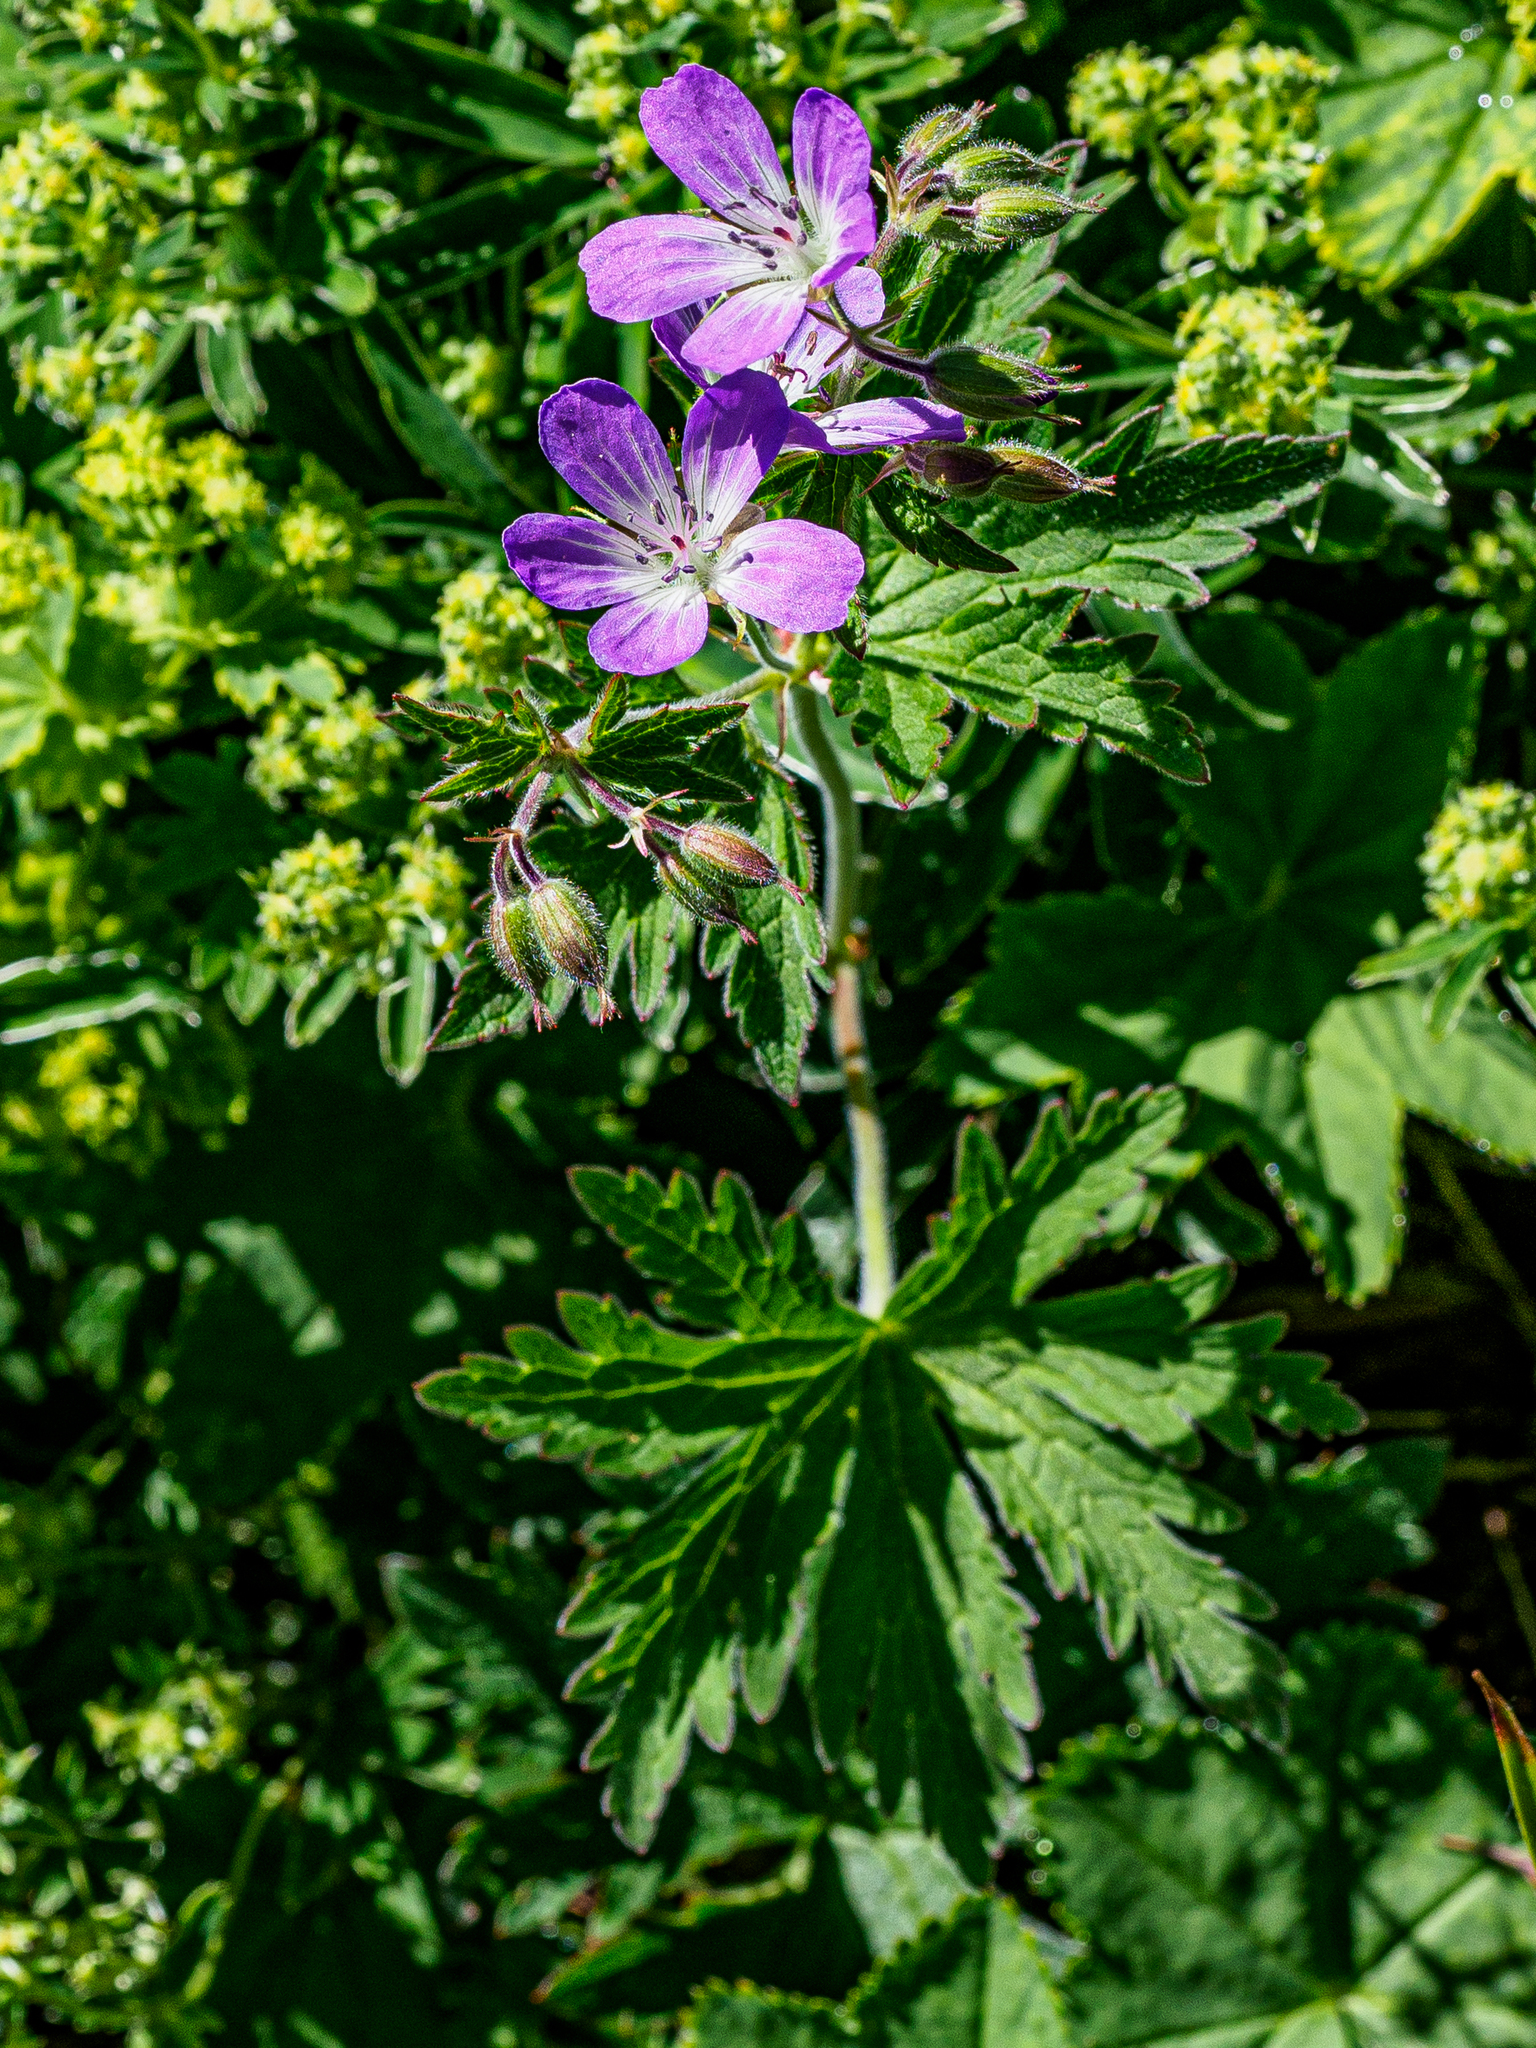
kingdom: Plantae
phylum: Tracheophyta
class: Magnoliopsida
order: Geraniales
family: Geraniaceae
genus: Geranium
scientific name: Geranium sylvaticum
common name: Wood crane's-bill
